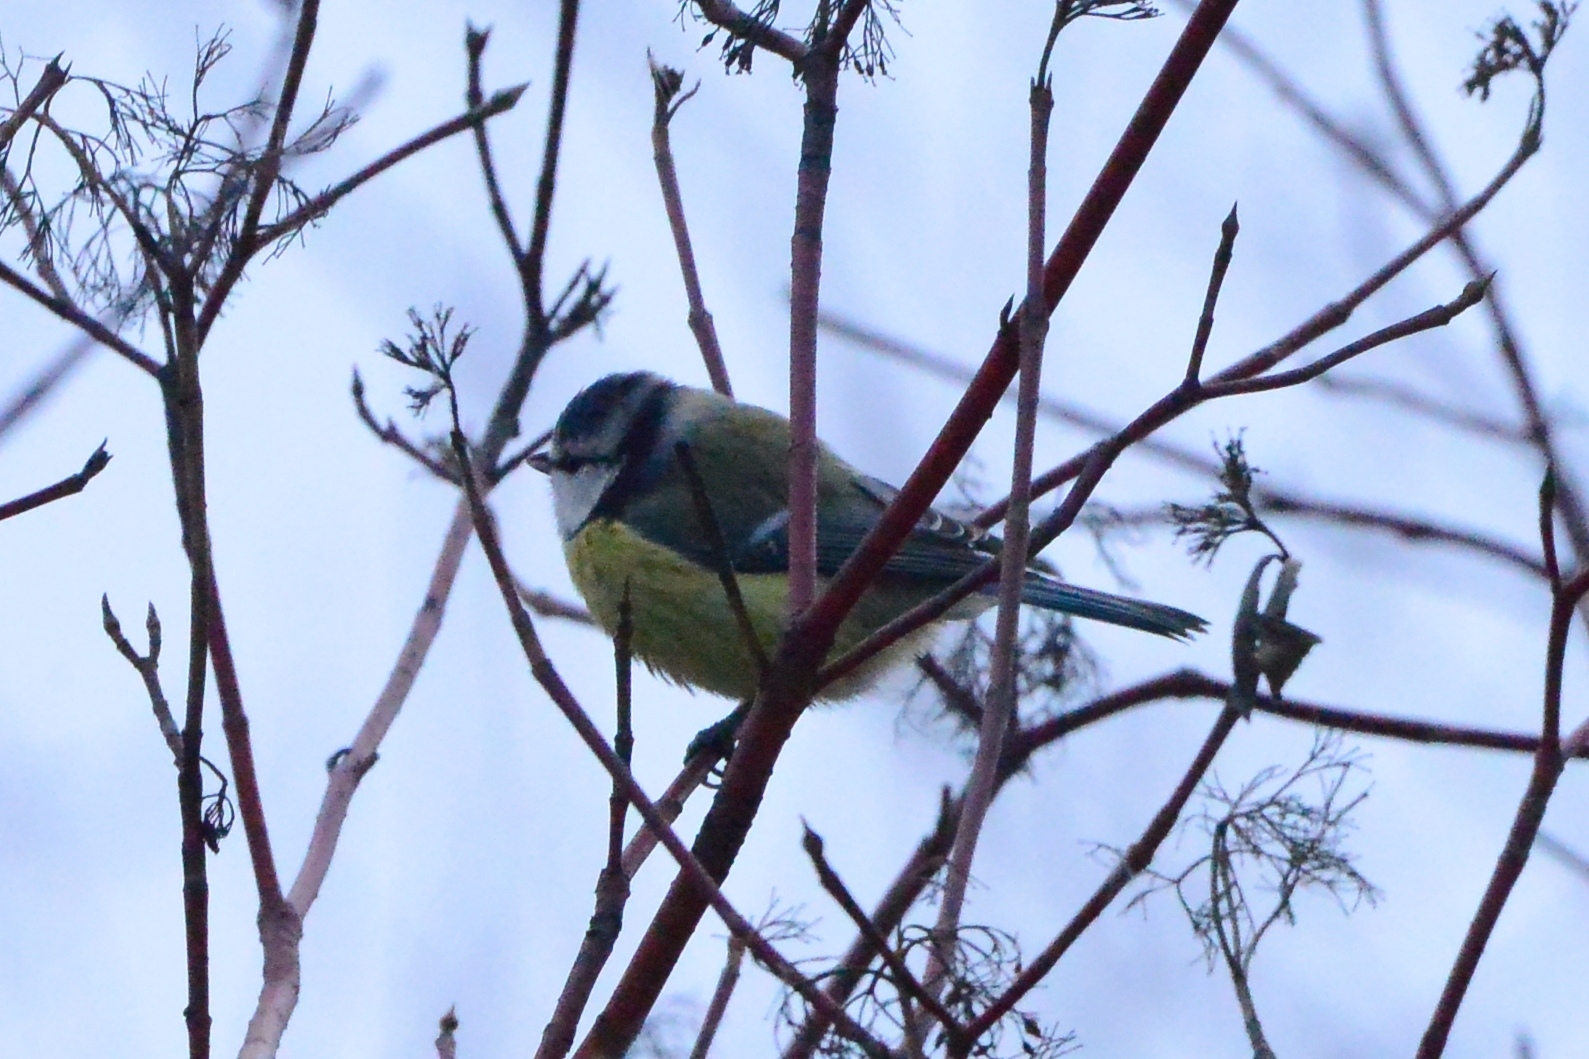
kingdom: Animalia
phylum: Chordata
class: Aves
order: Passeriformes
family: Paridae
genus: Cyanistes
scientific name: Cyanistes caeruleus
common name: Eurasian blue tit
